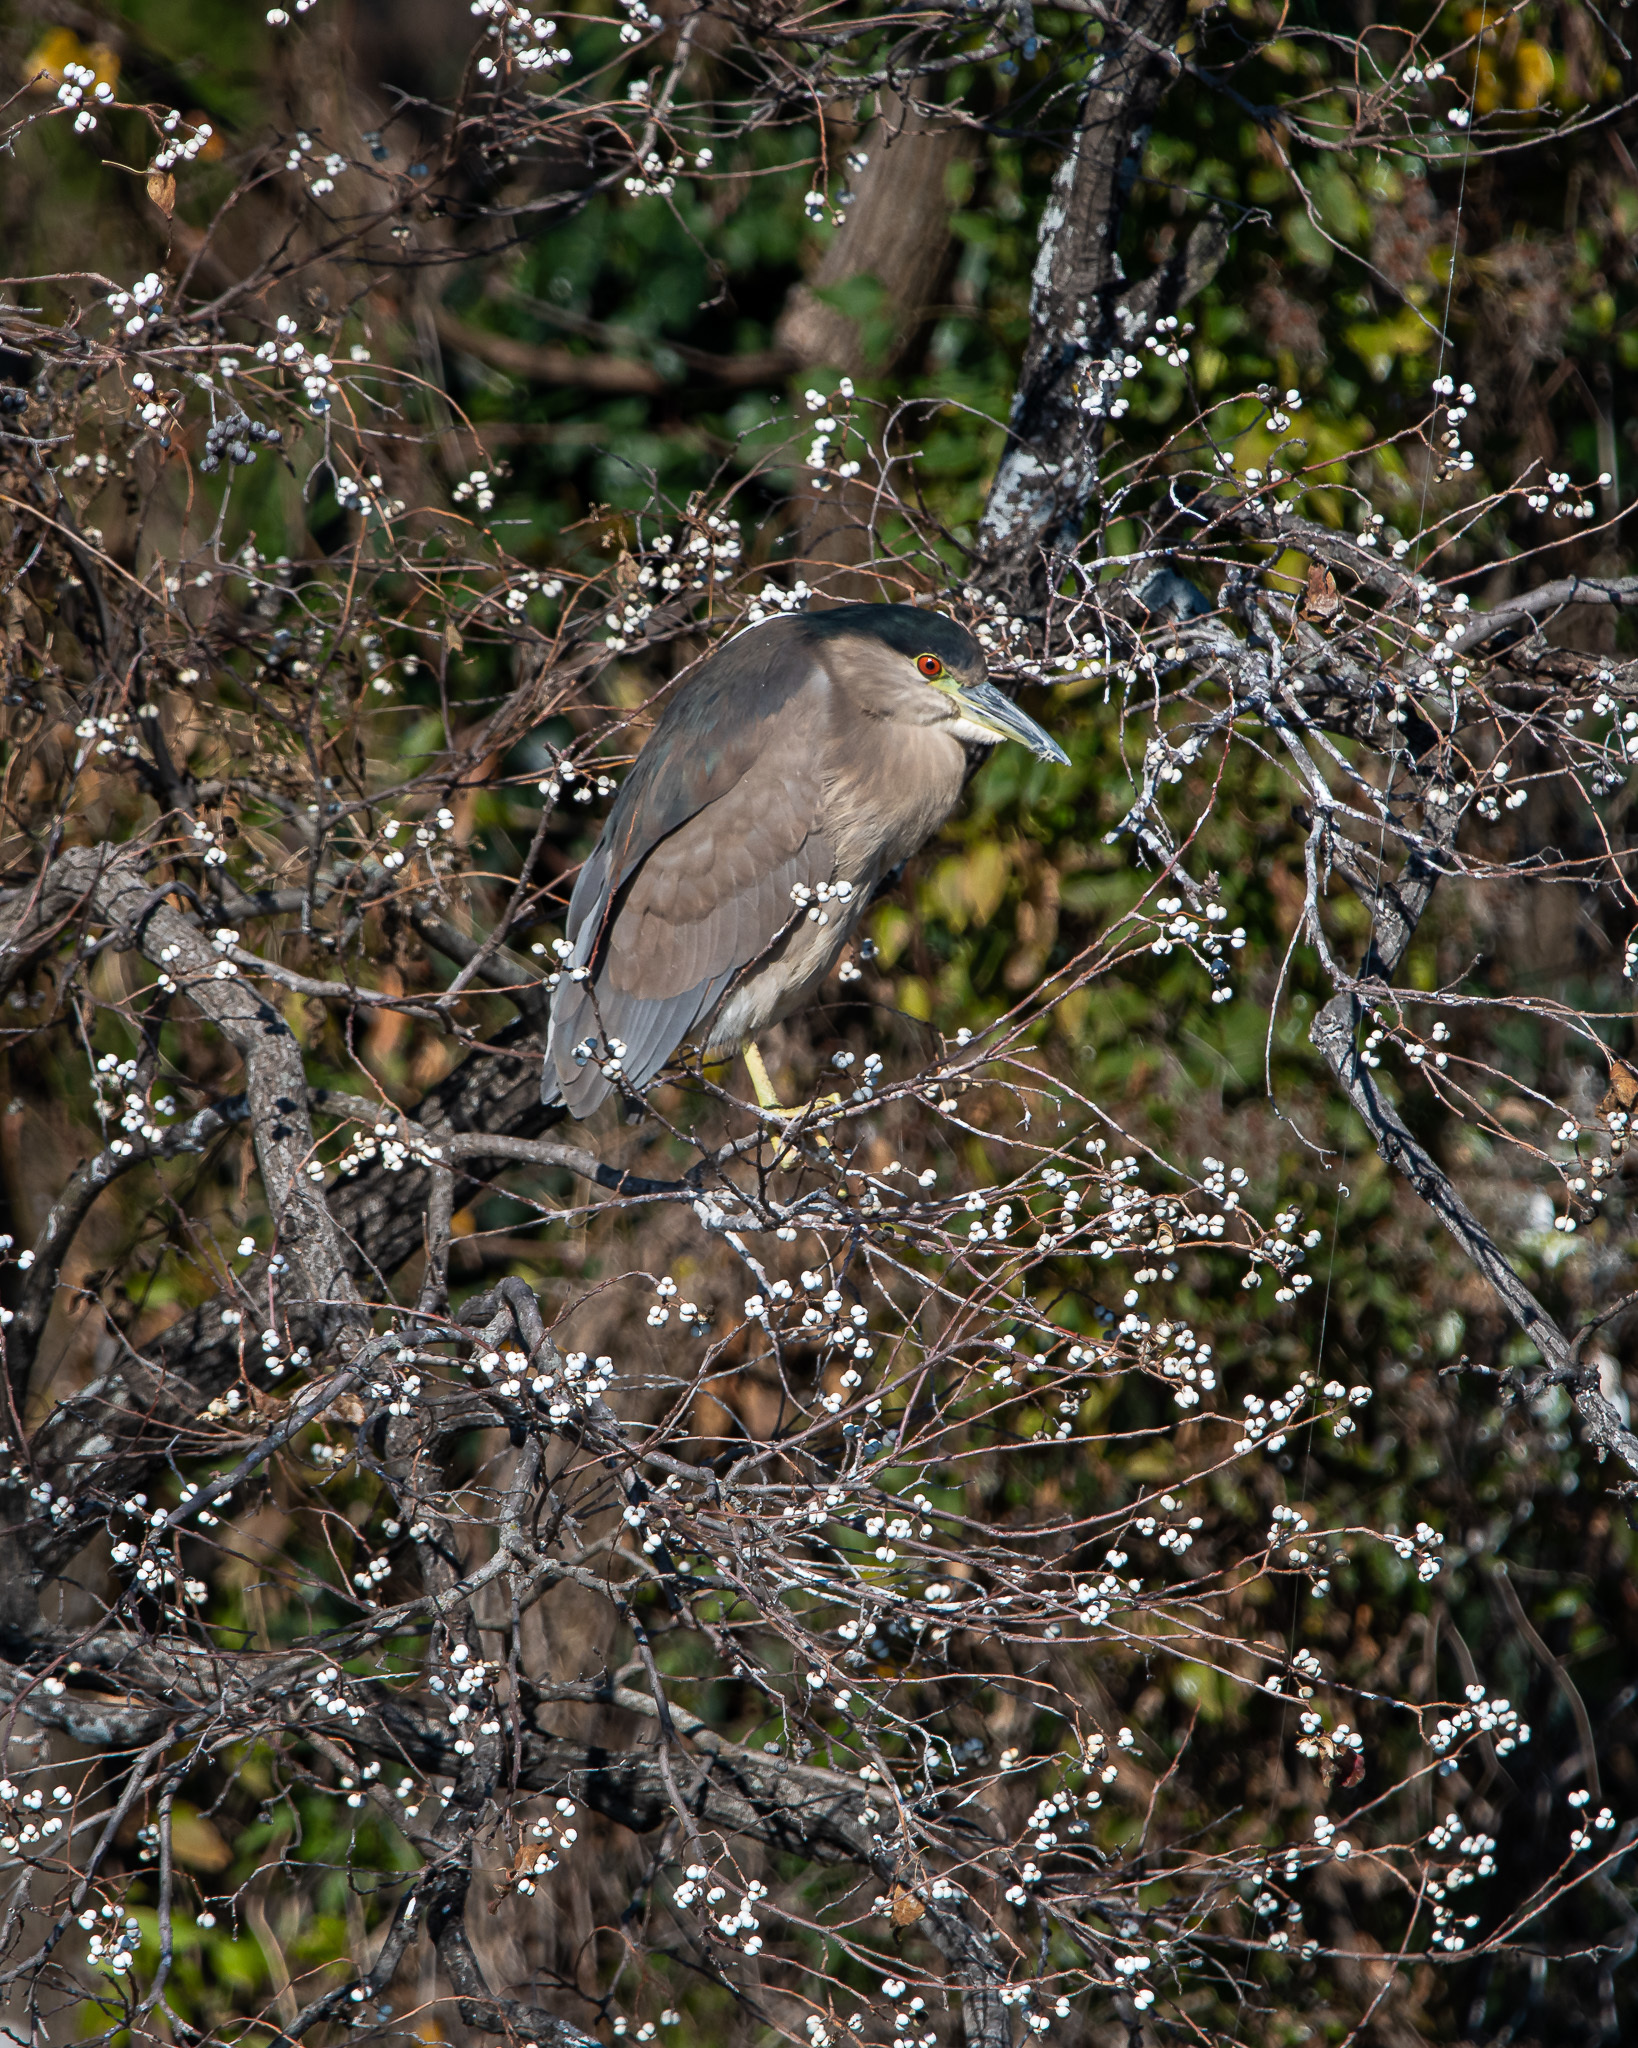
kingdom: Animalia
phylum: Chordata
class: Aves
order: Pelecaniformes
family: Ardeidae
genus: Nycticorax
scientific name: Nycticorax nycticorax
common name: Black-crowned night heron
